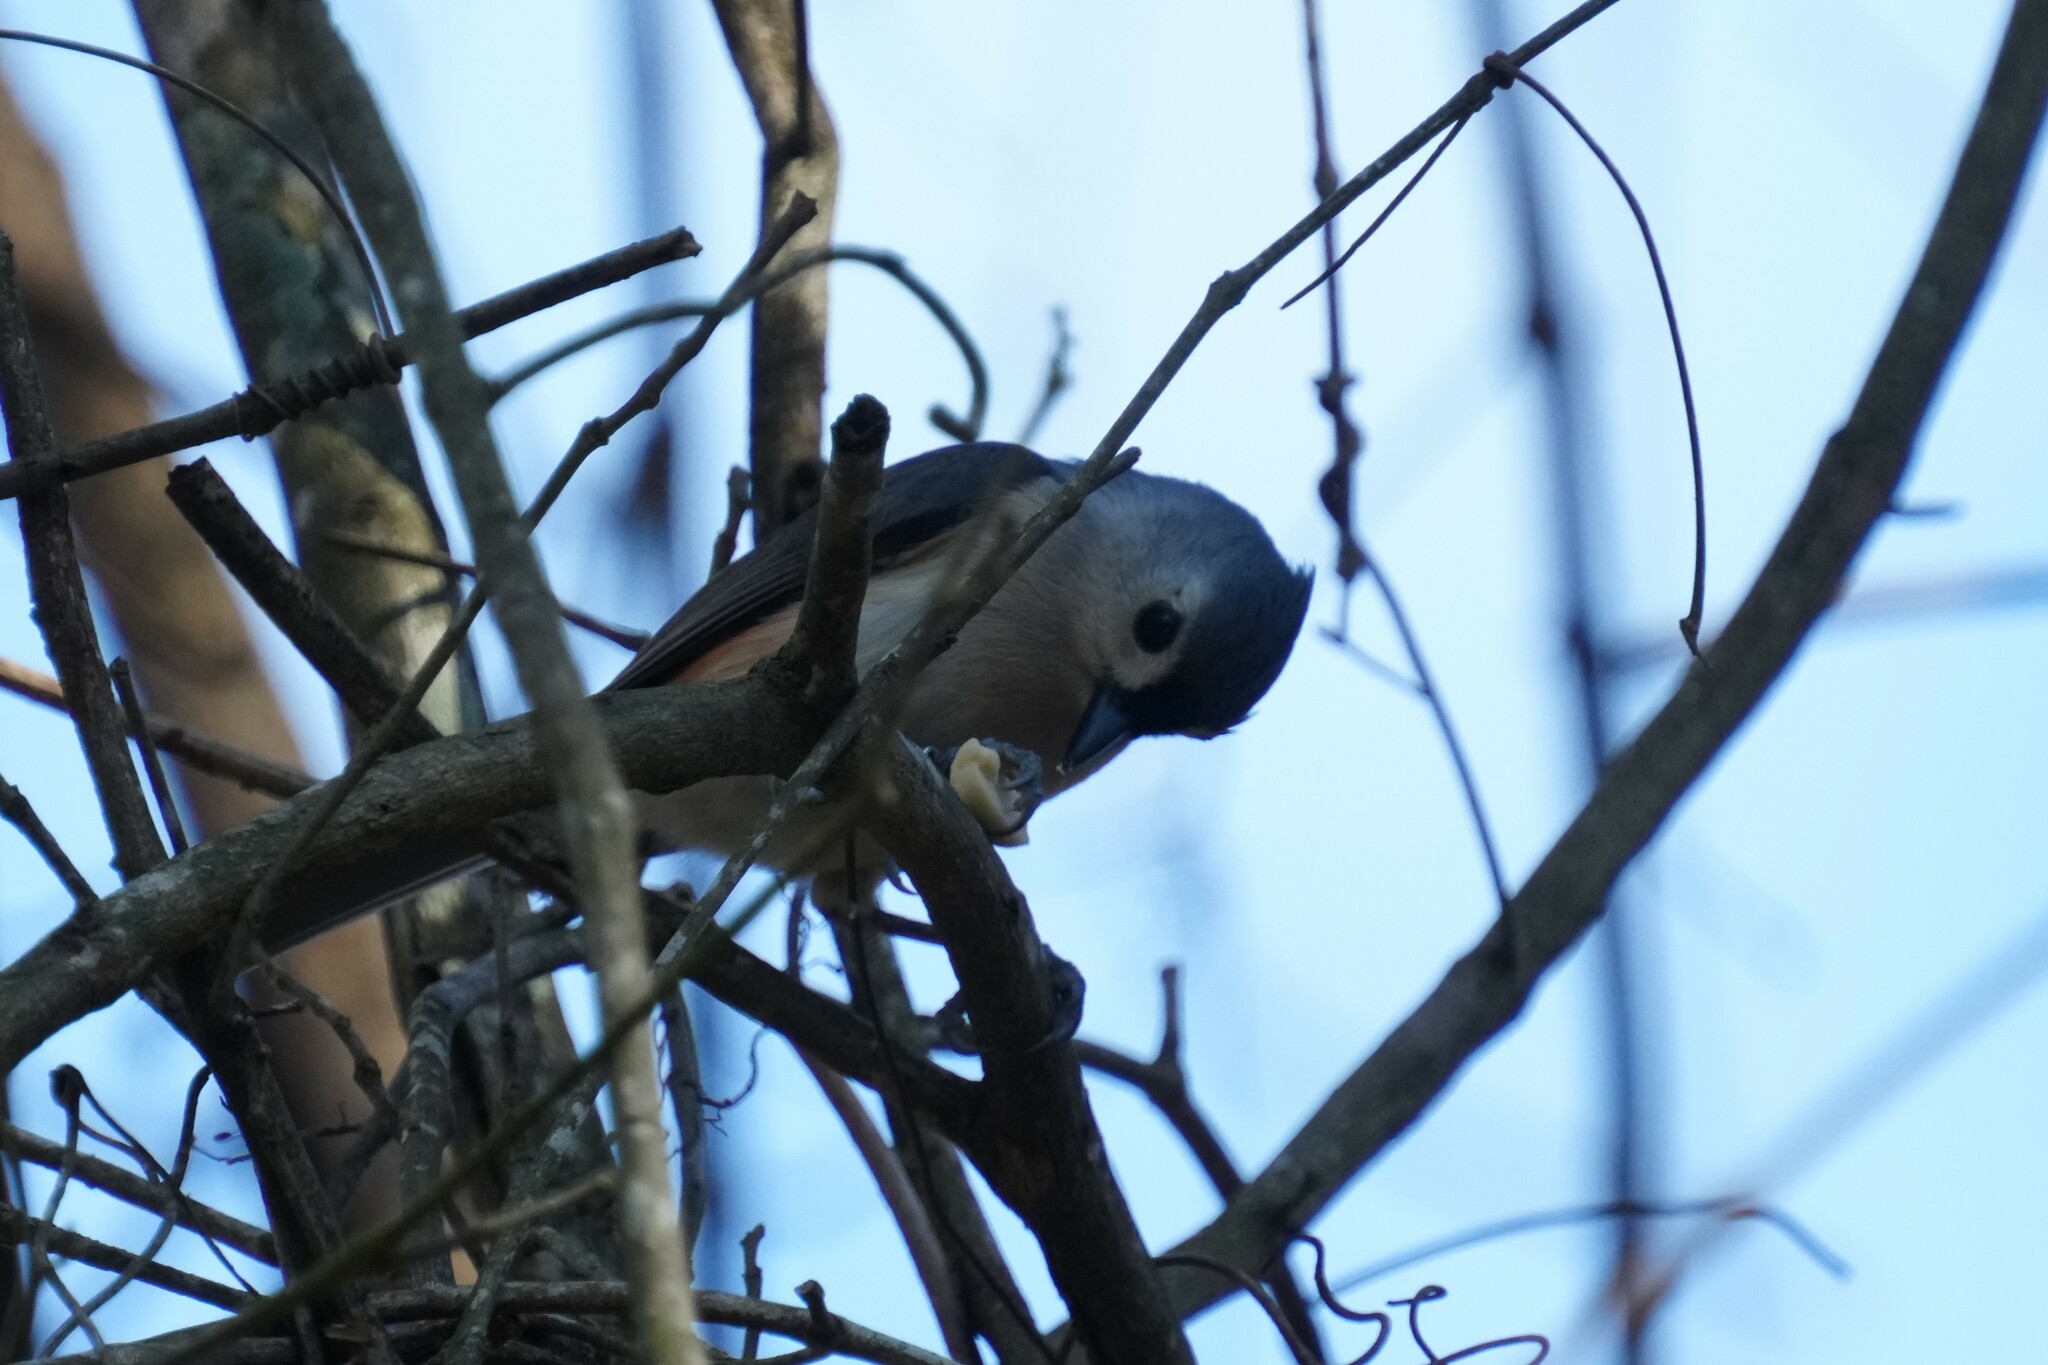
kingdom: Animalia
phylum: Chordata
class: Aves
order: Passeriformes
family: Paridae
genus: Baeolophus
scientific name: Baeolophus bicolor
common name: Tufted titmouse
